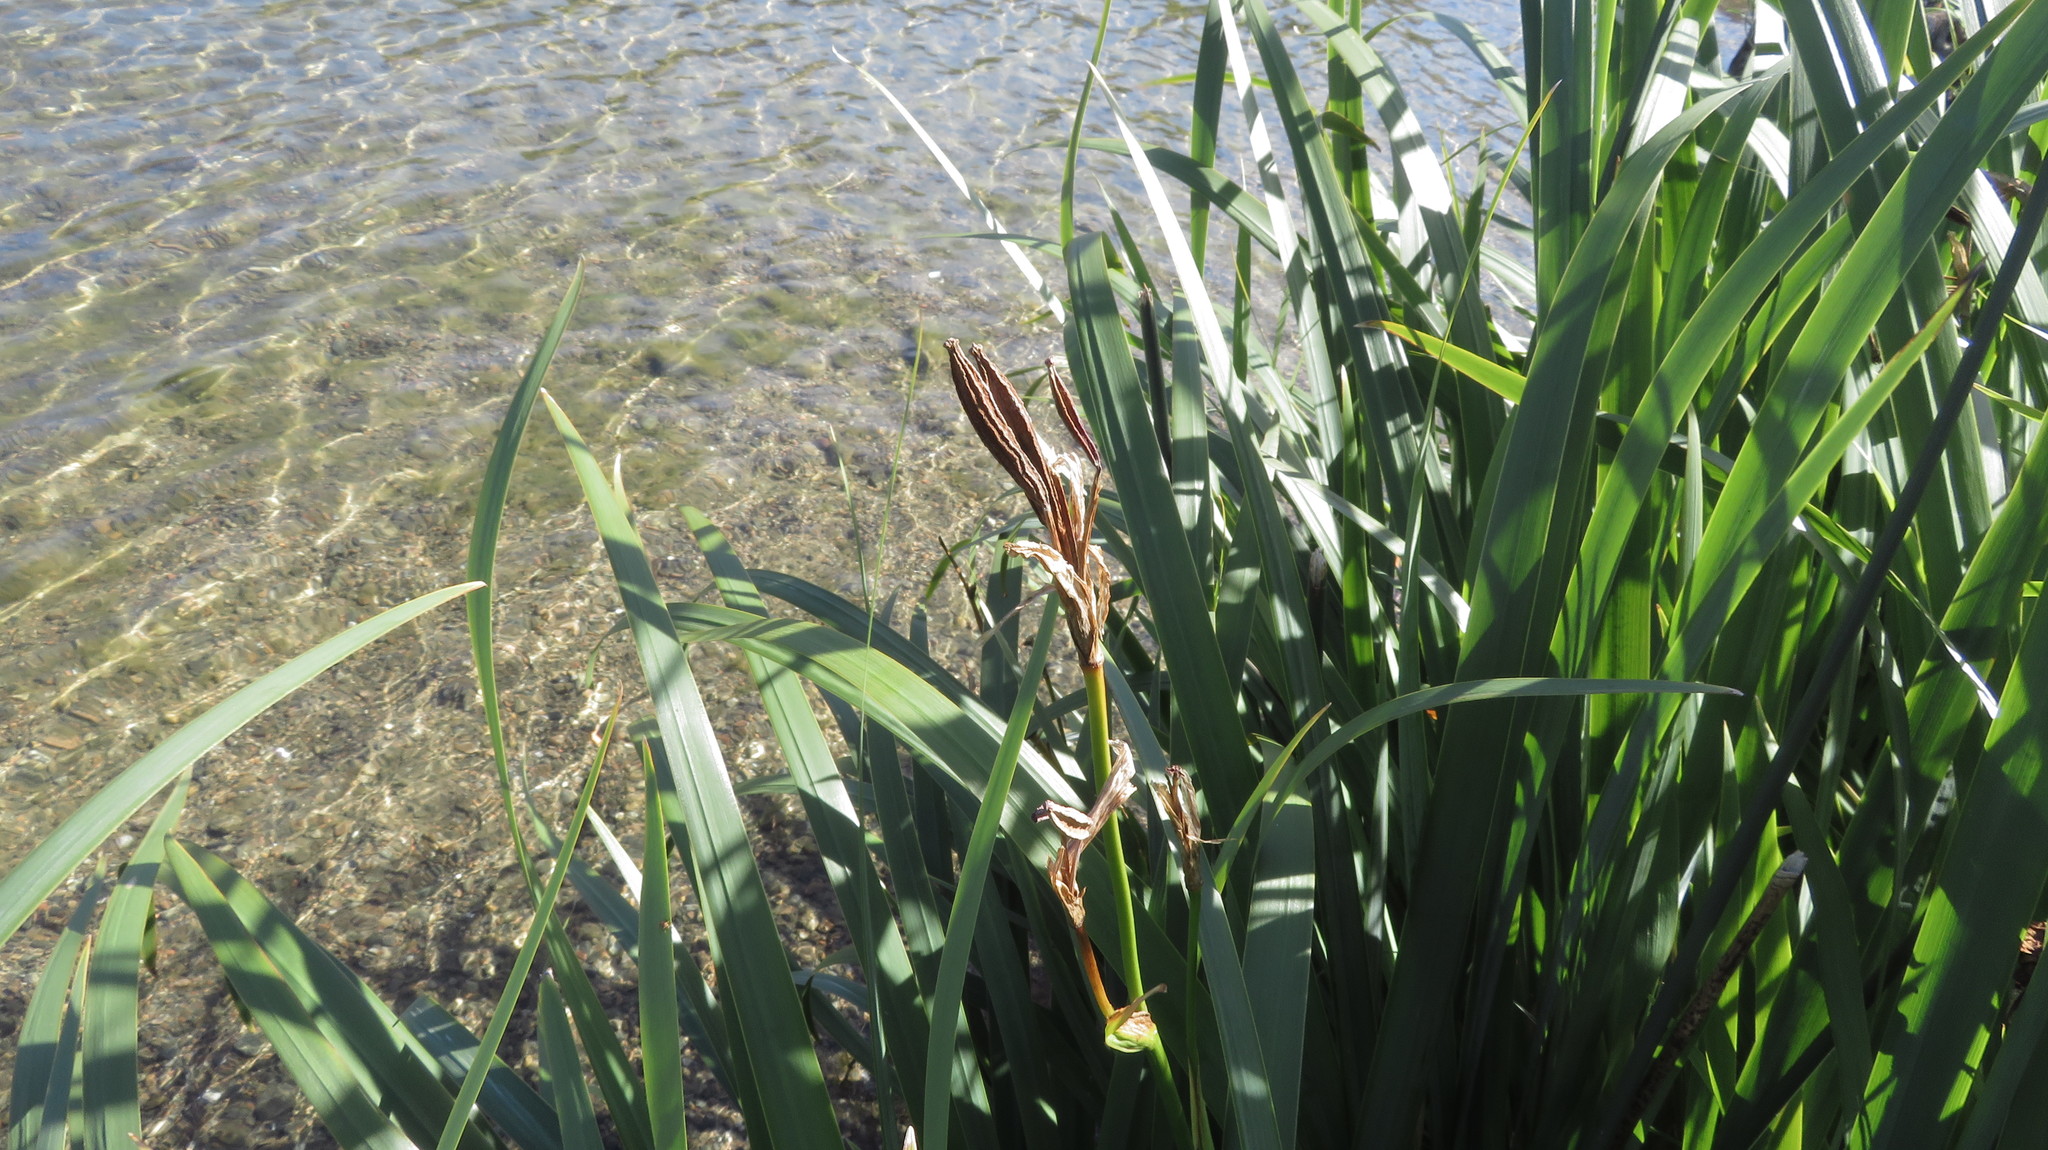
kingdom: Plantae
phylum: Tracheophyta
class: Liliopsida
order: Asparagales
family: Iridaceae
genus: Iris
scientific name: Iris pseudacorus
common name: Yellow flag
